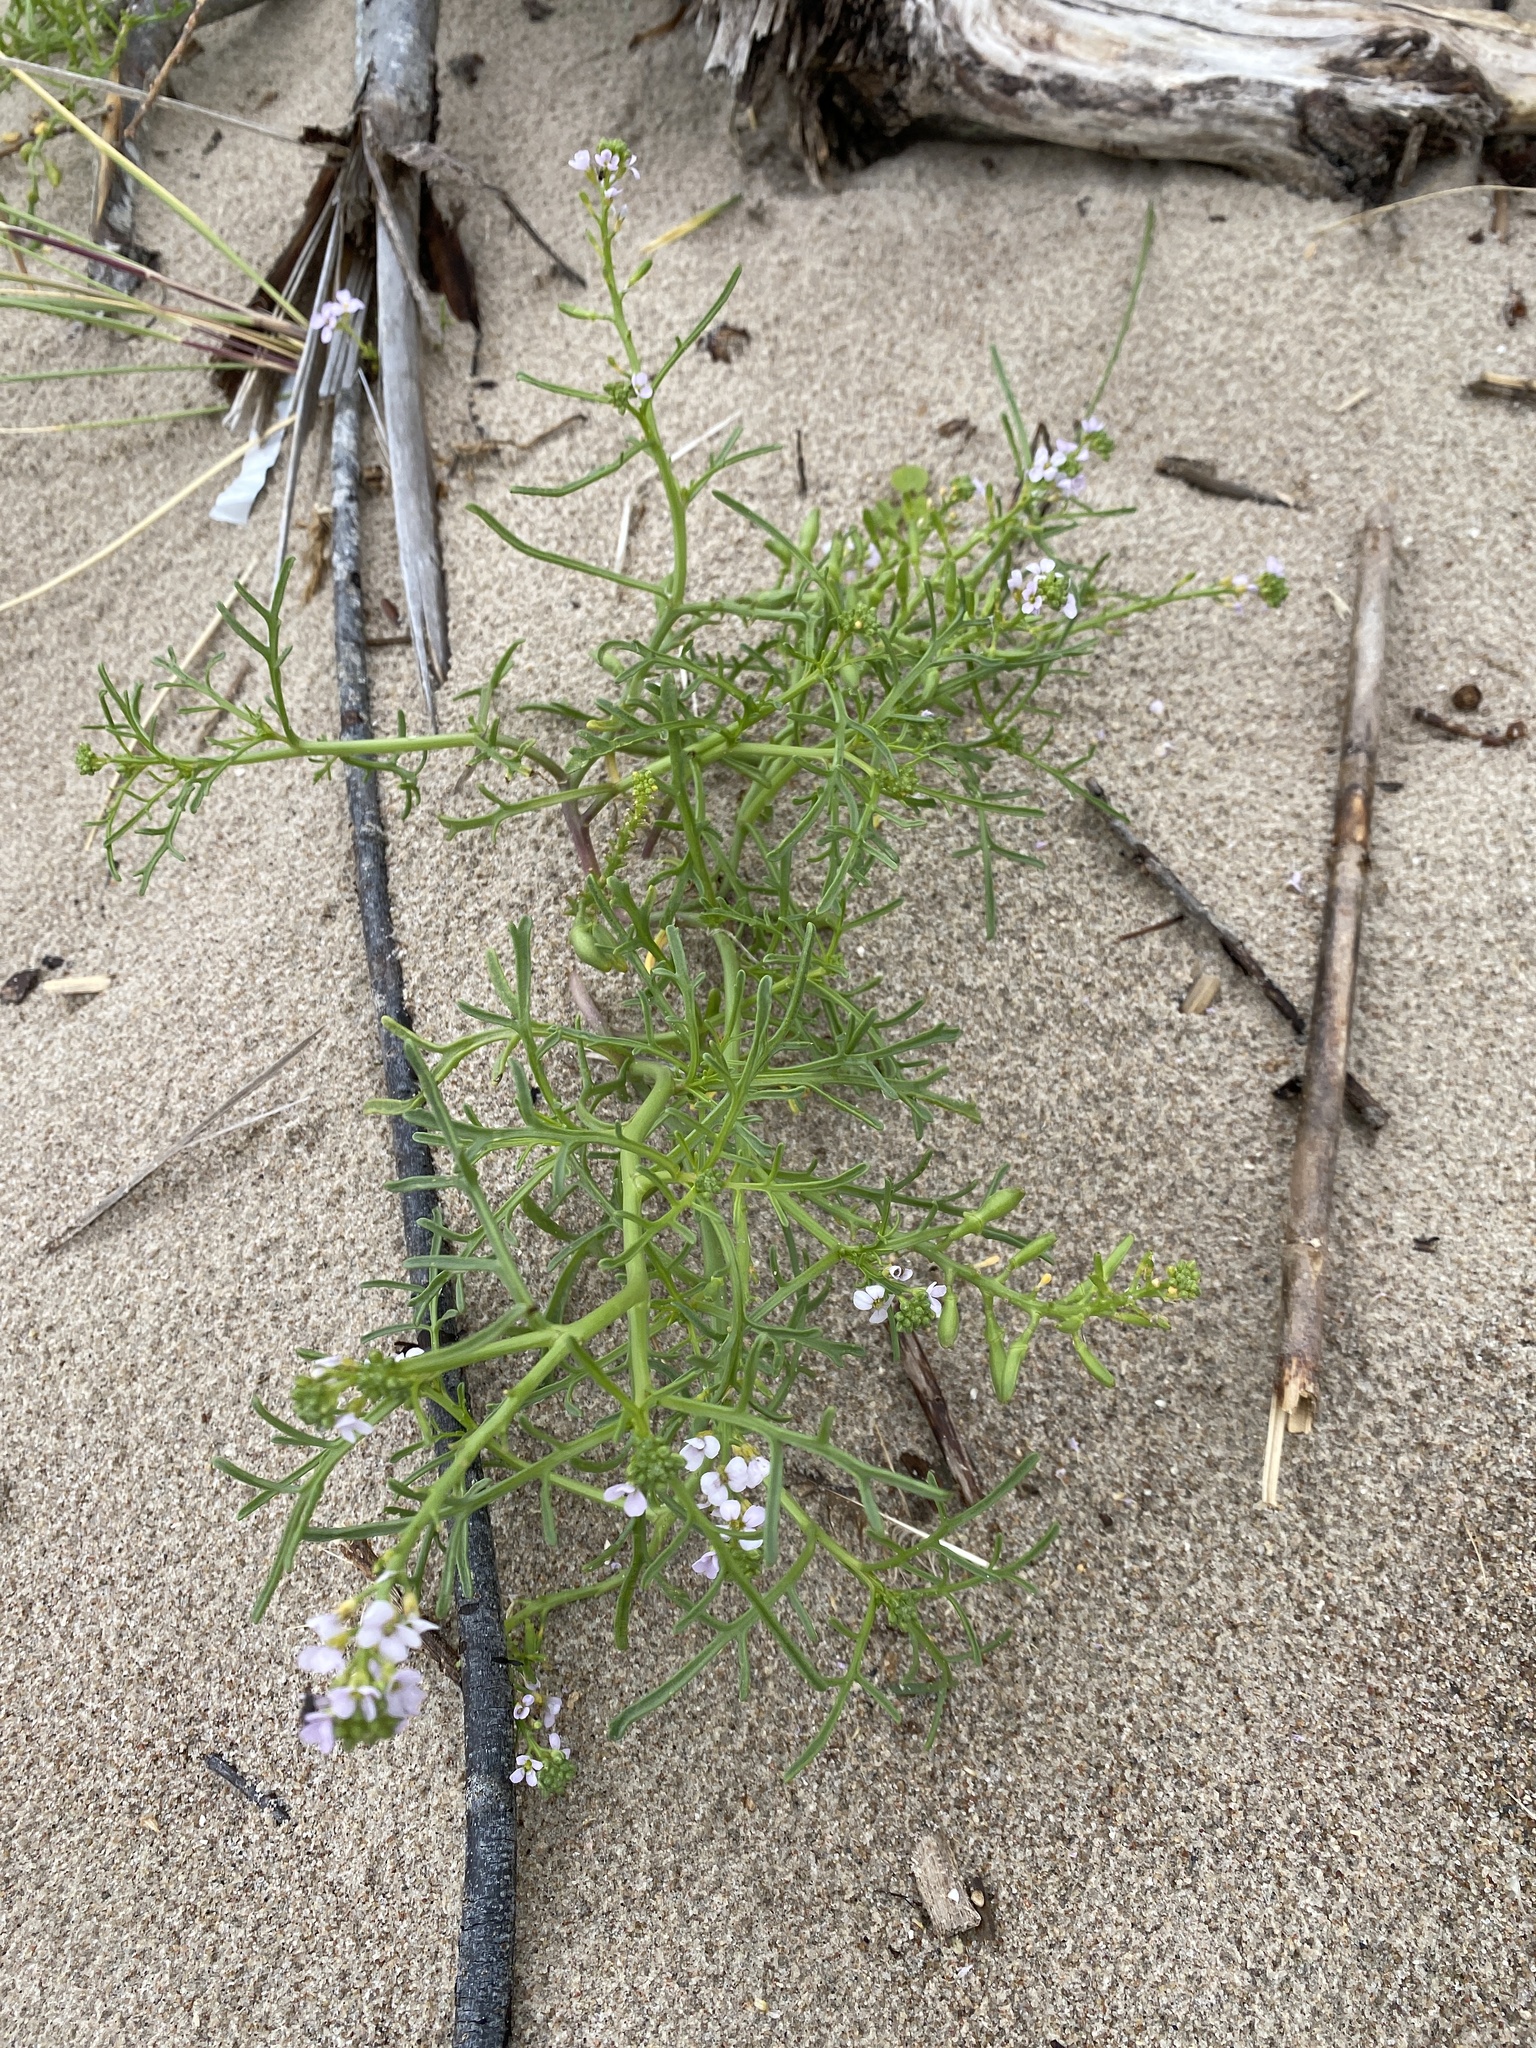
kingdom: Plantae
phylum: Tracheophyta
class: Magnoliopsida
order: Brassicales
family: Brassicaceae
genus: Cakile
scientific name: Cakile maritima
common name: Sea rocket
